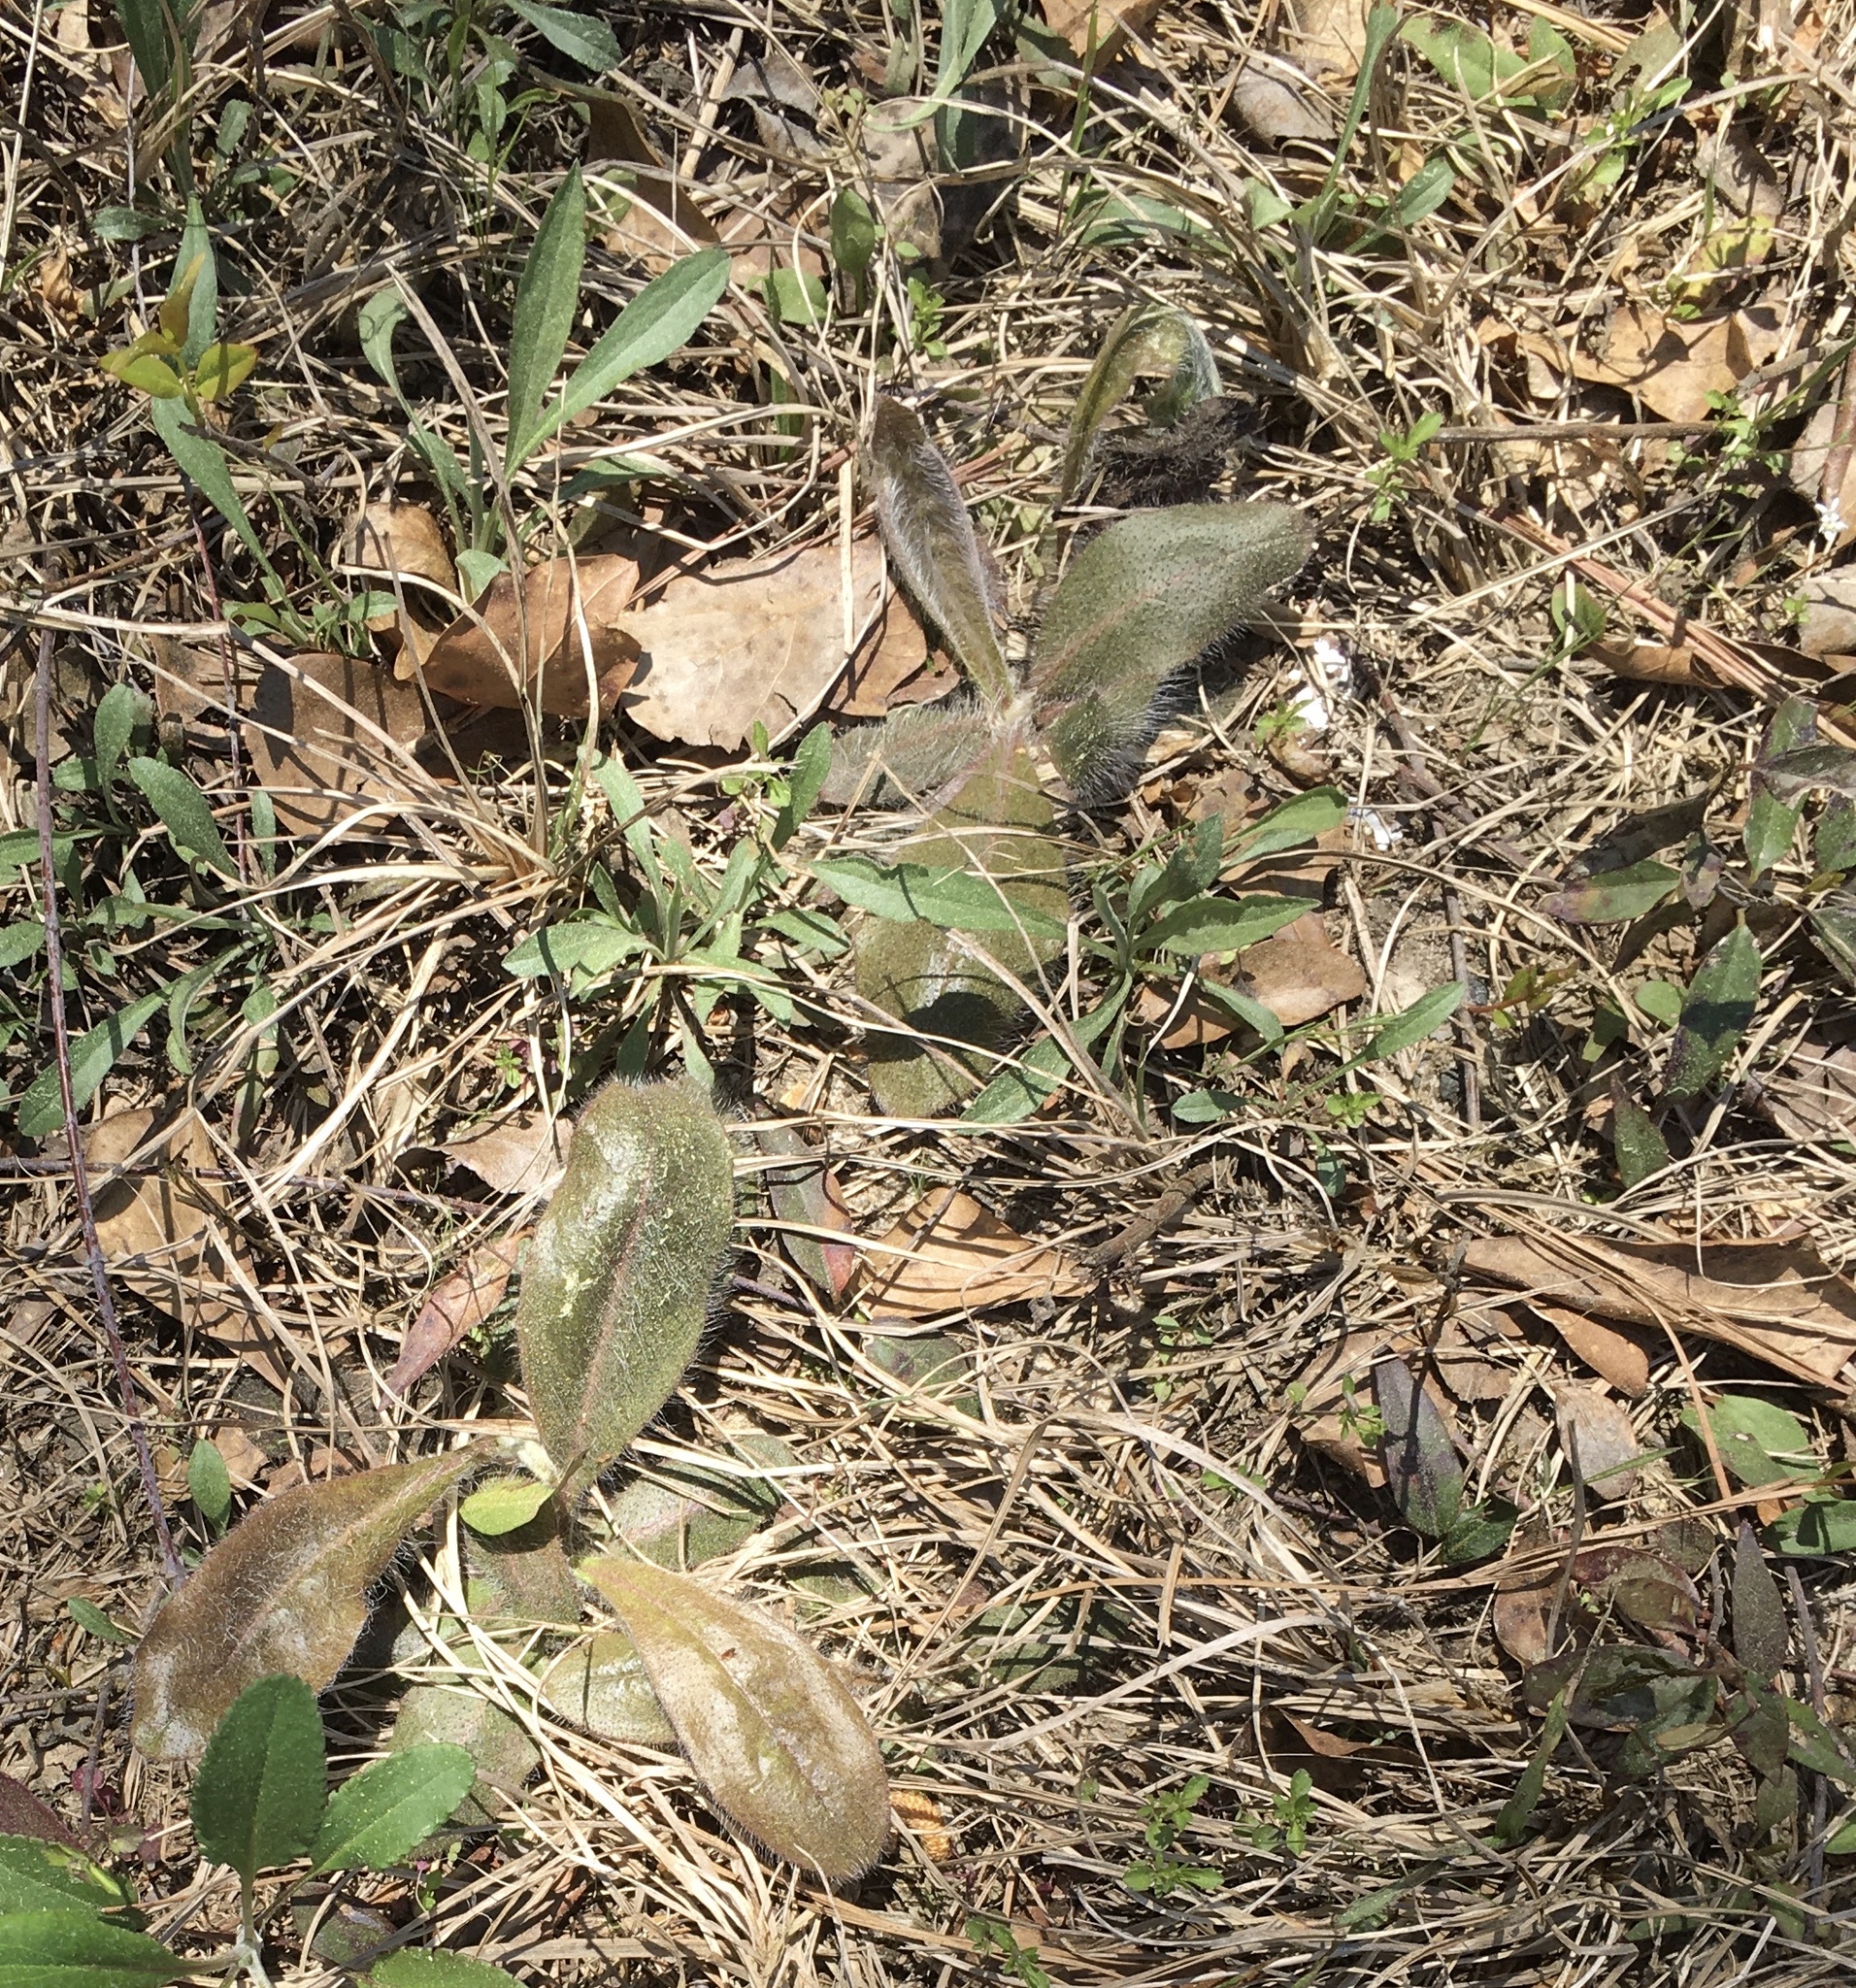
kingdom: Plantae
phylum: Tracheophyta
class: Magnoliopsida
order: Asterales
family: Asteraceae
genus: Hieracium
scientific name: Hieracium gronovii
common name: Beaked hawkweed
